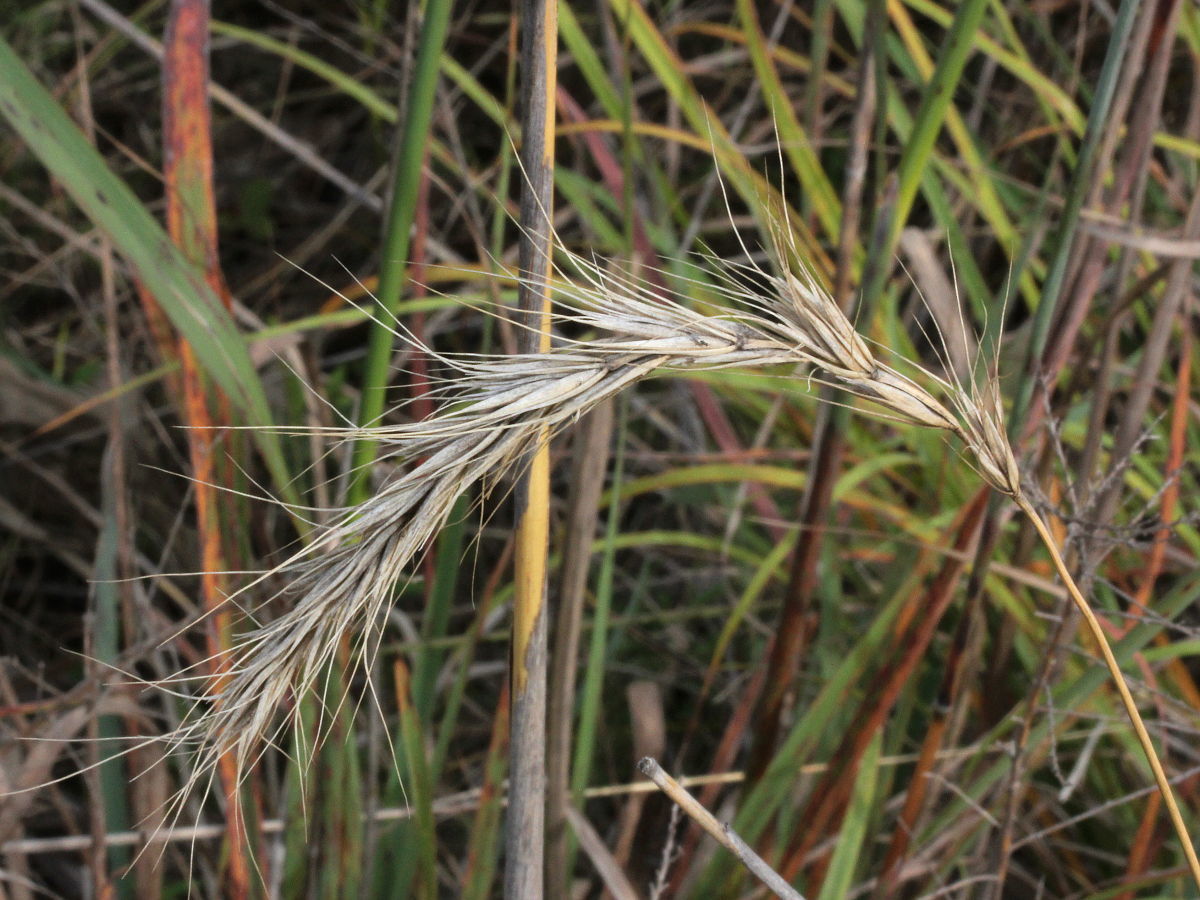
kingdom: Plantae
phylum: Tracheophyta
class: Liliopsida
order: Poales
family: Poaceae
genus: Elymus
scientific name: Elymus canadensis
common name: Canada wild rye
